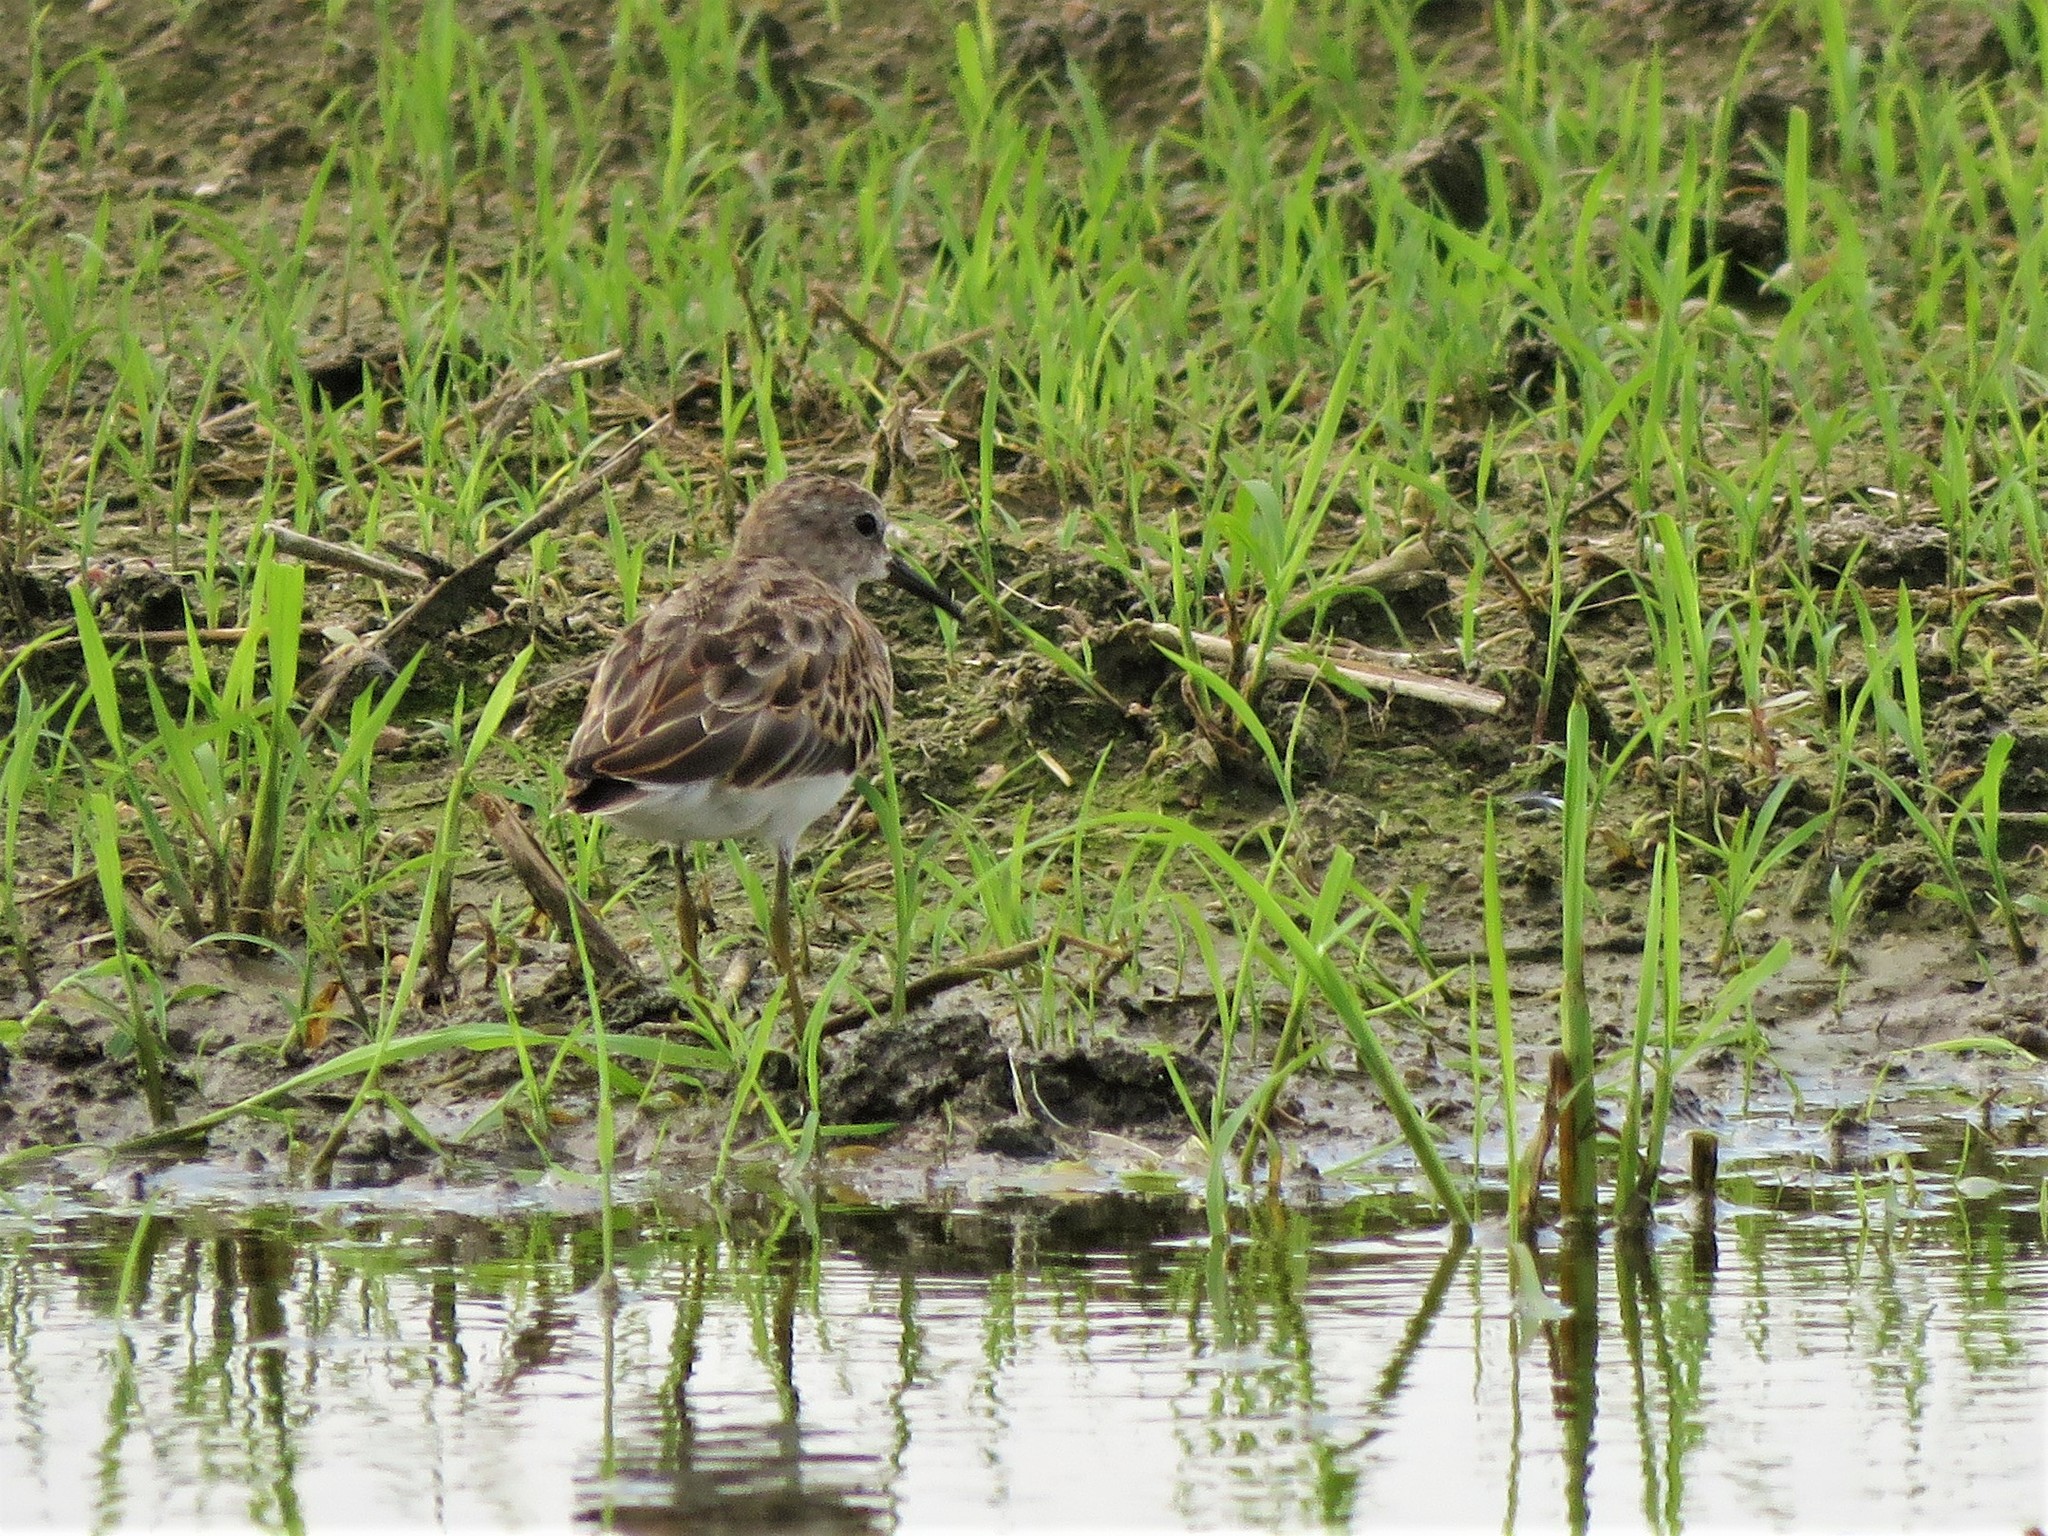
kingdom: Animalia
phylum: Chordata
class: Aves
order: Charadriiformes
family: Scolopacidae
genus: Calidris
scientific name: Calidris minutilla
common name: Least sandpiper
